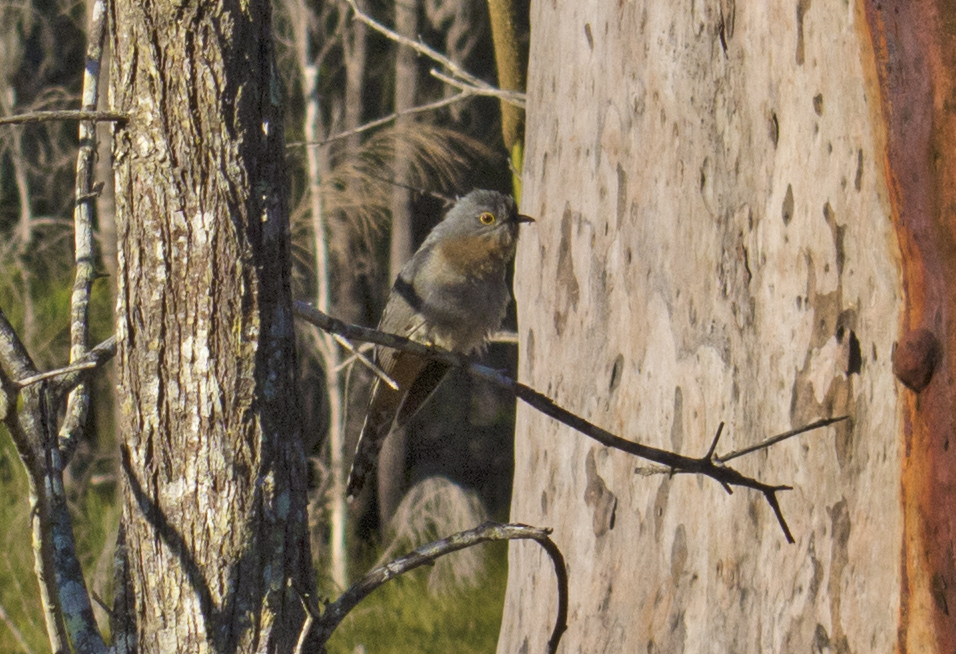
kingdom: Animalia
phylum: Chordata
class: Aves
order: Cuculiformes
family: Cuculidae
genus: Cacomantis
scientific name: Cacomantis flabelliformis
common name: Fan-tailed cuckoo
